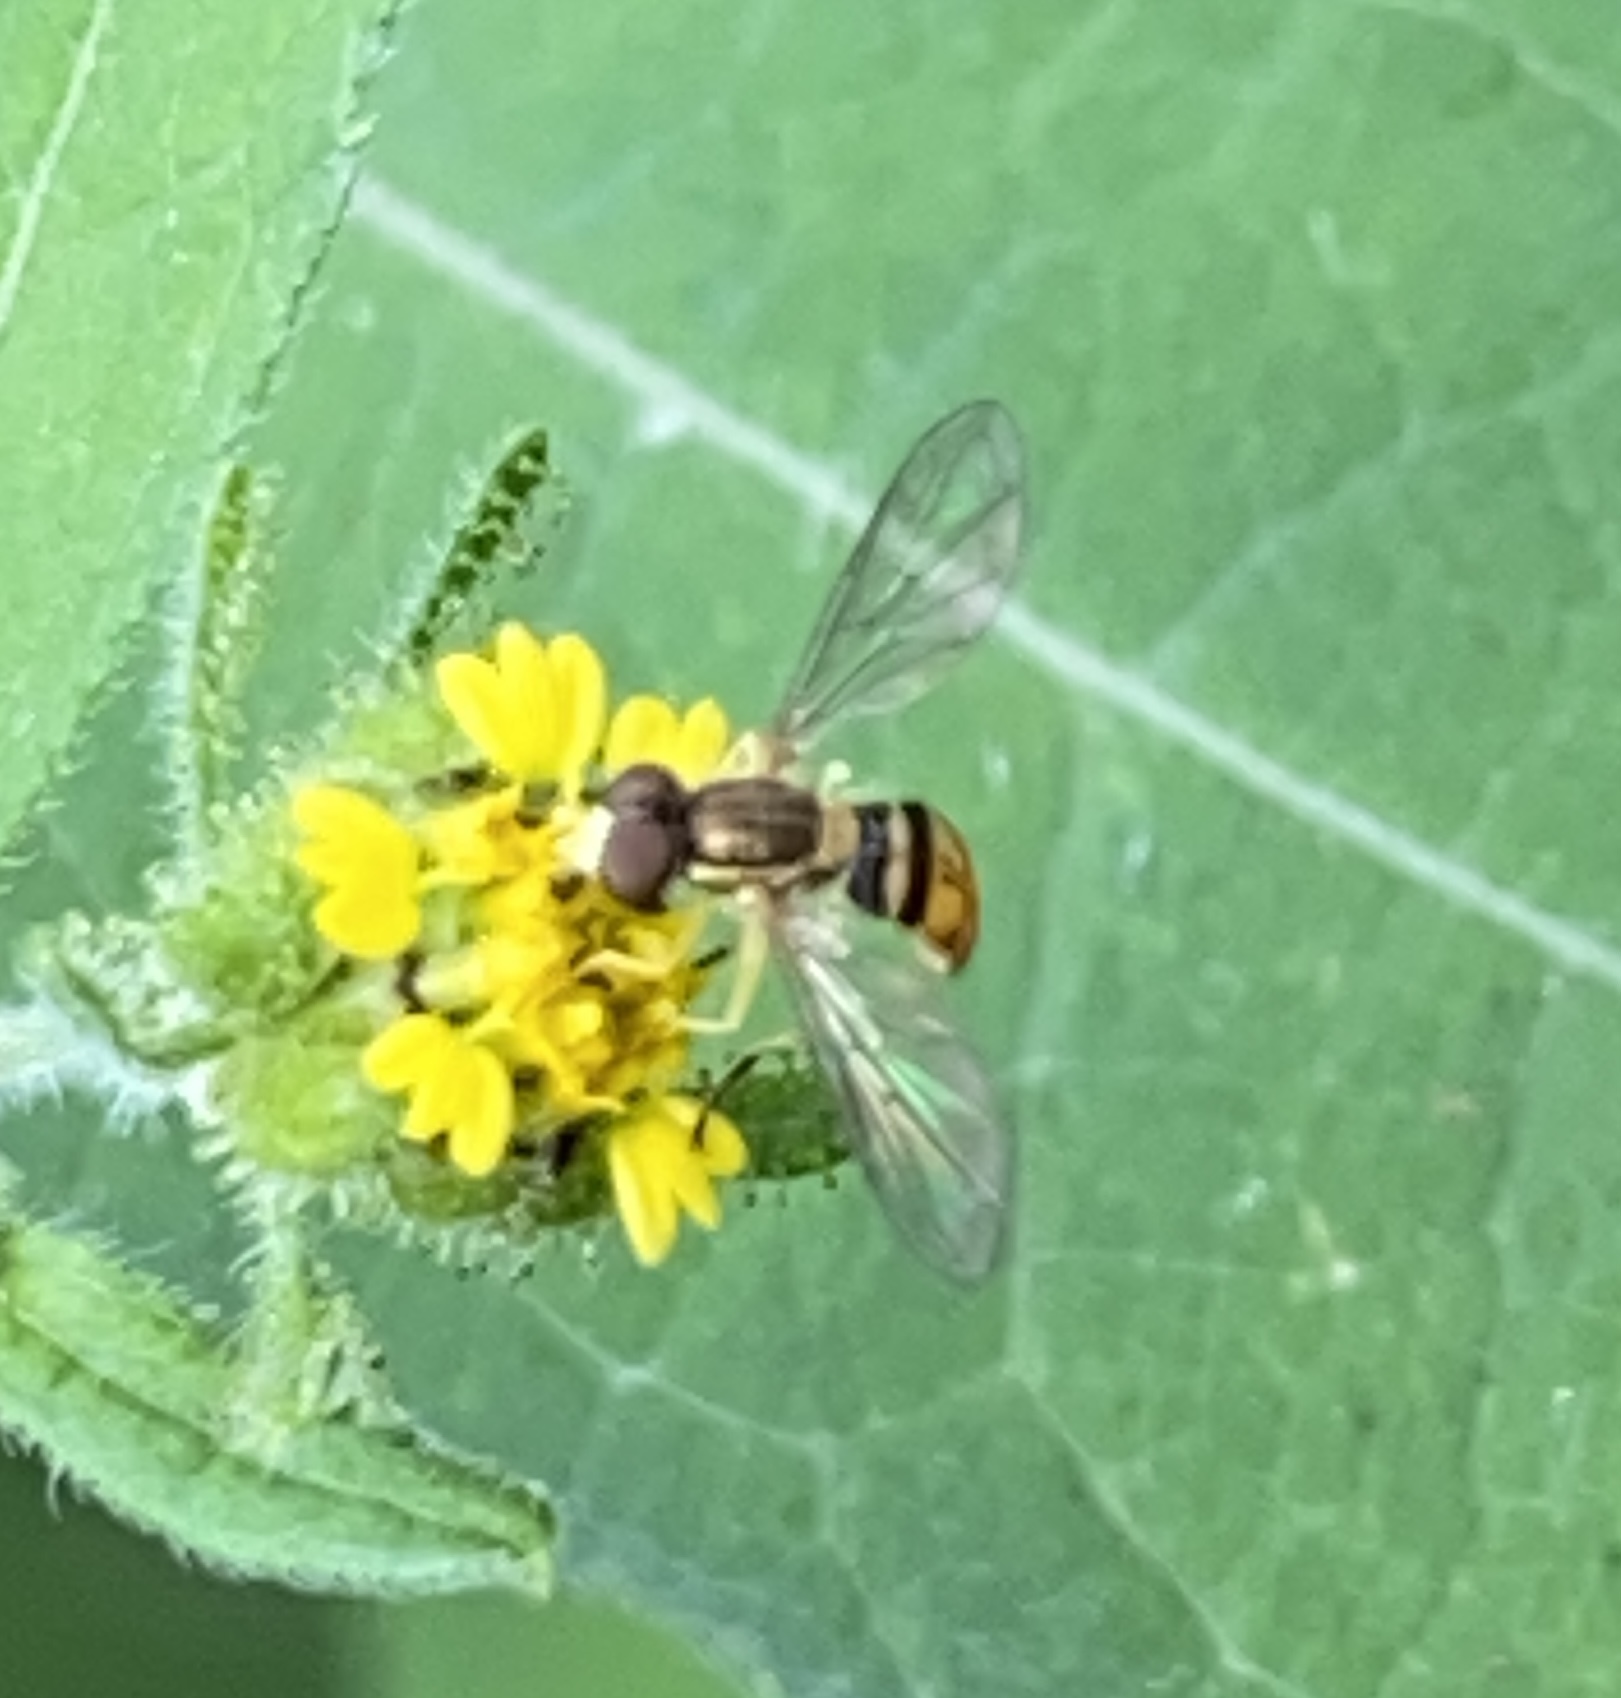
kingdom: Animalia
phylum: Arthropoda
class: Insecta
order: Diptera
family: Syrphidae
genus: Toxomerus
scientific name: Toxomerus marginatus
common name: Syrphid fly
